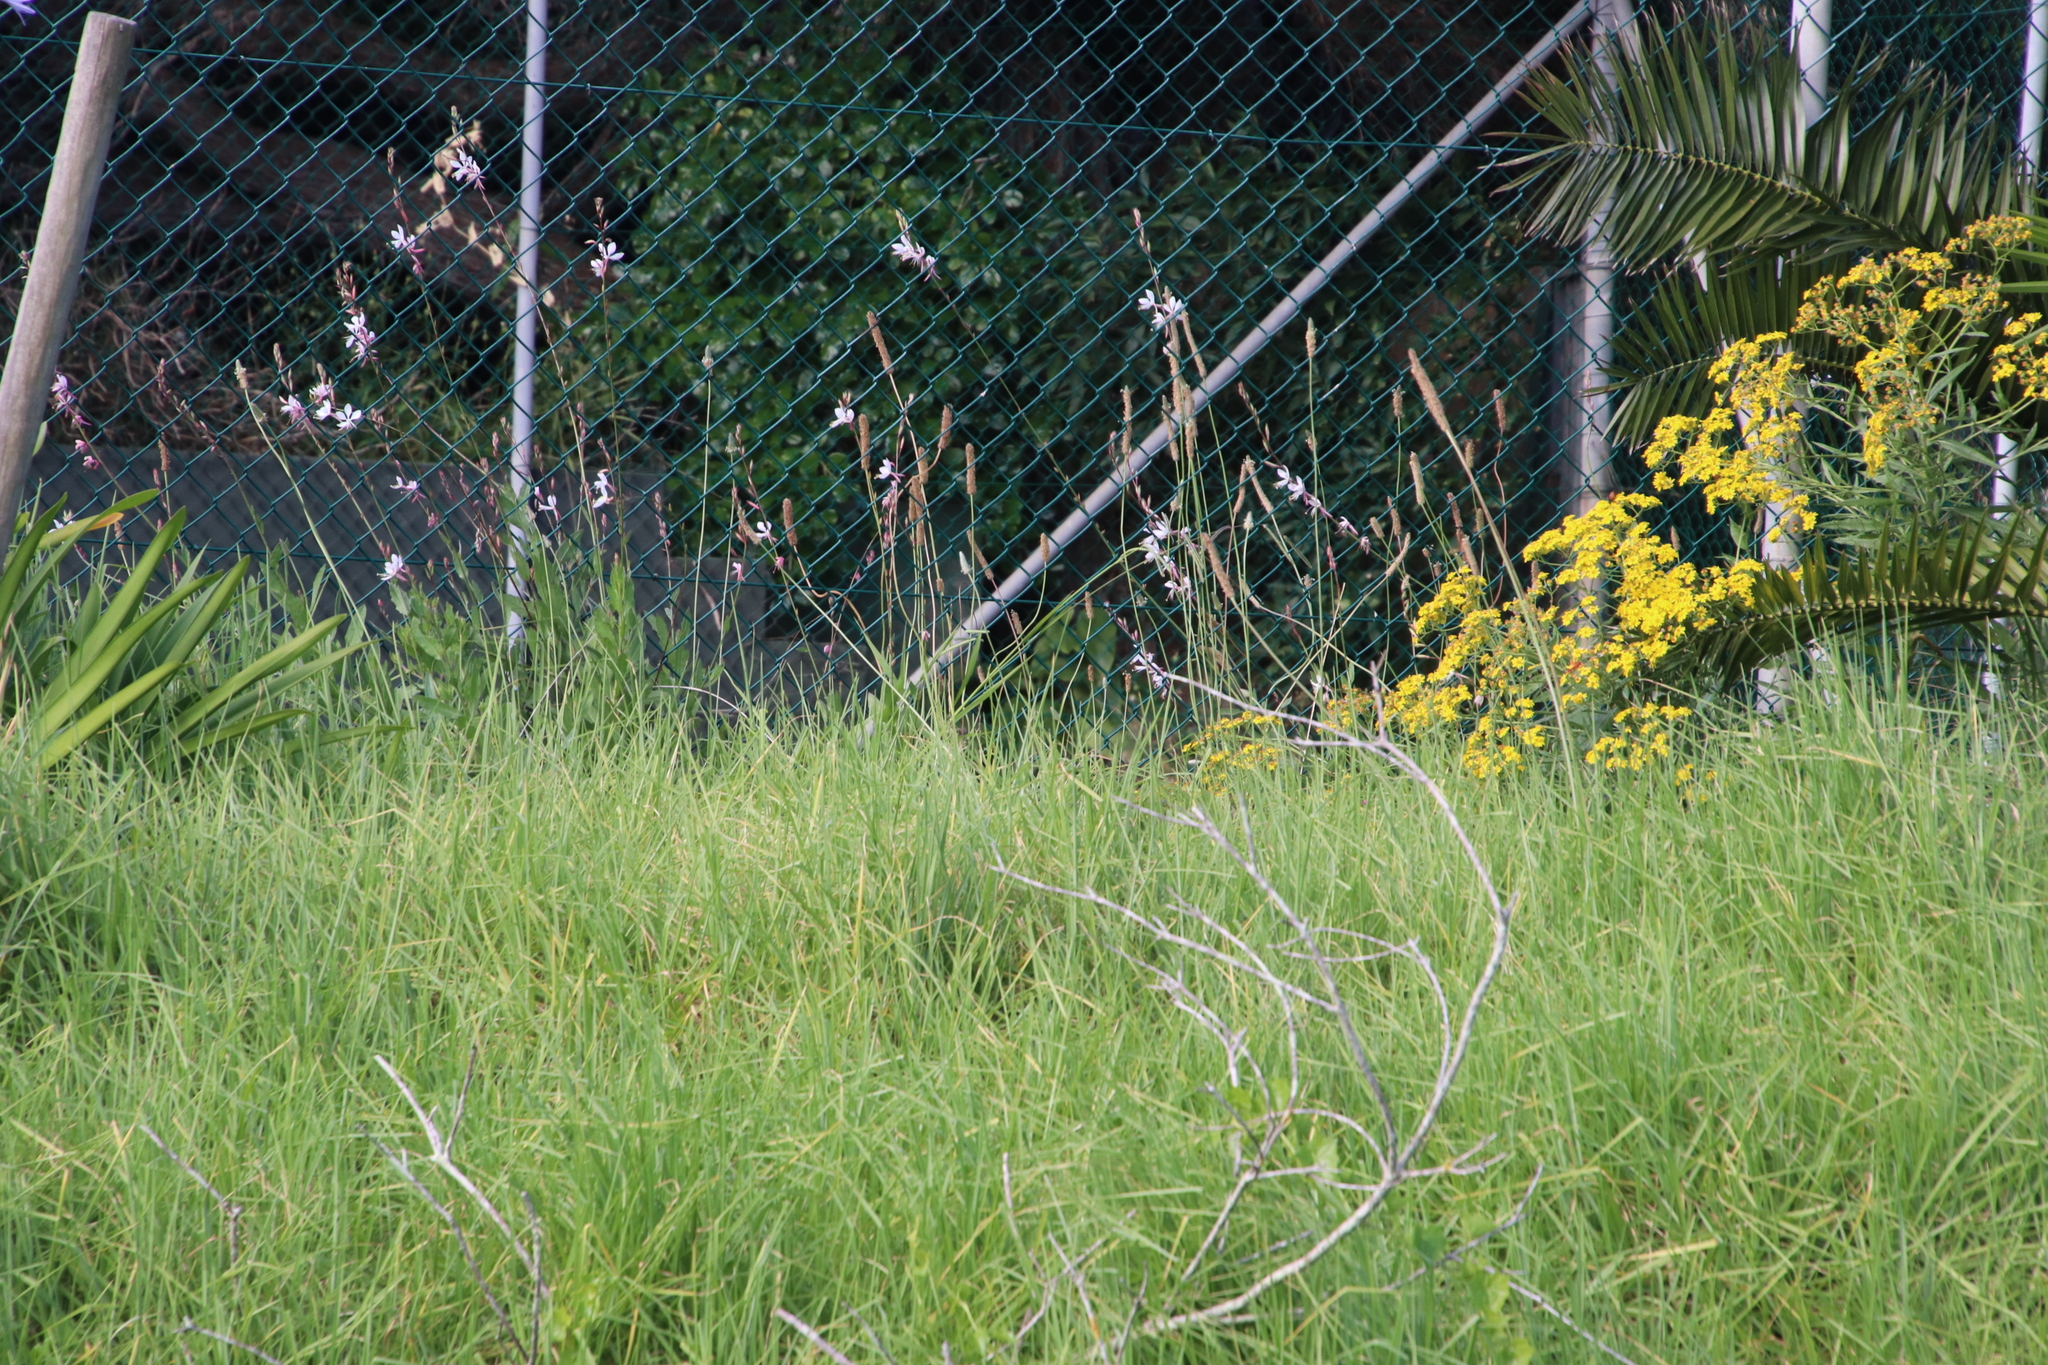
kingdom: Plantae
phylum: Tracheophyta
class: Magnoliopsida
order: Myrtales
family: Onagraceae
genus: Oenothera
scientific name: Oenothera lindheimeri
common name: Lindheimer's beeblossom
